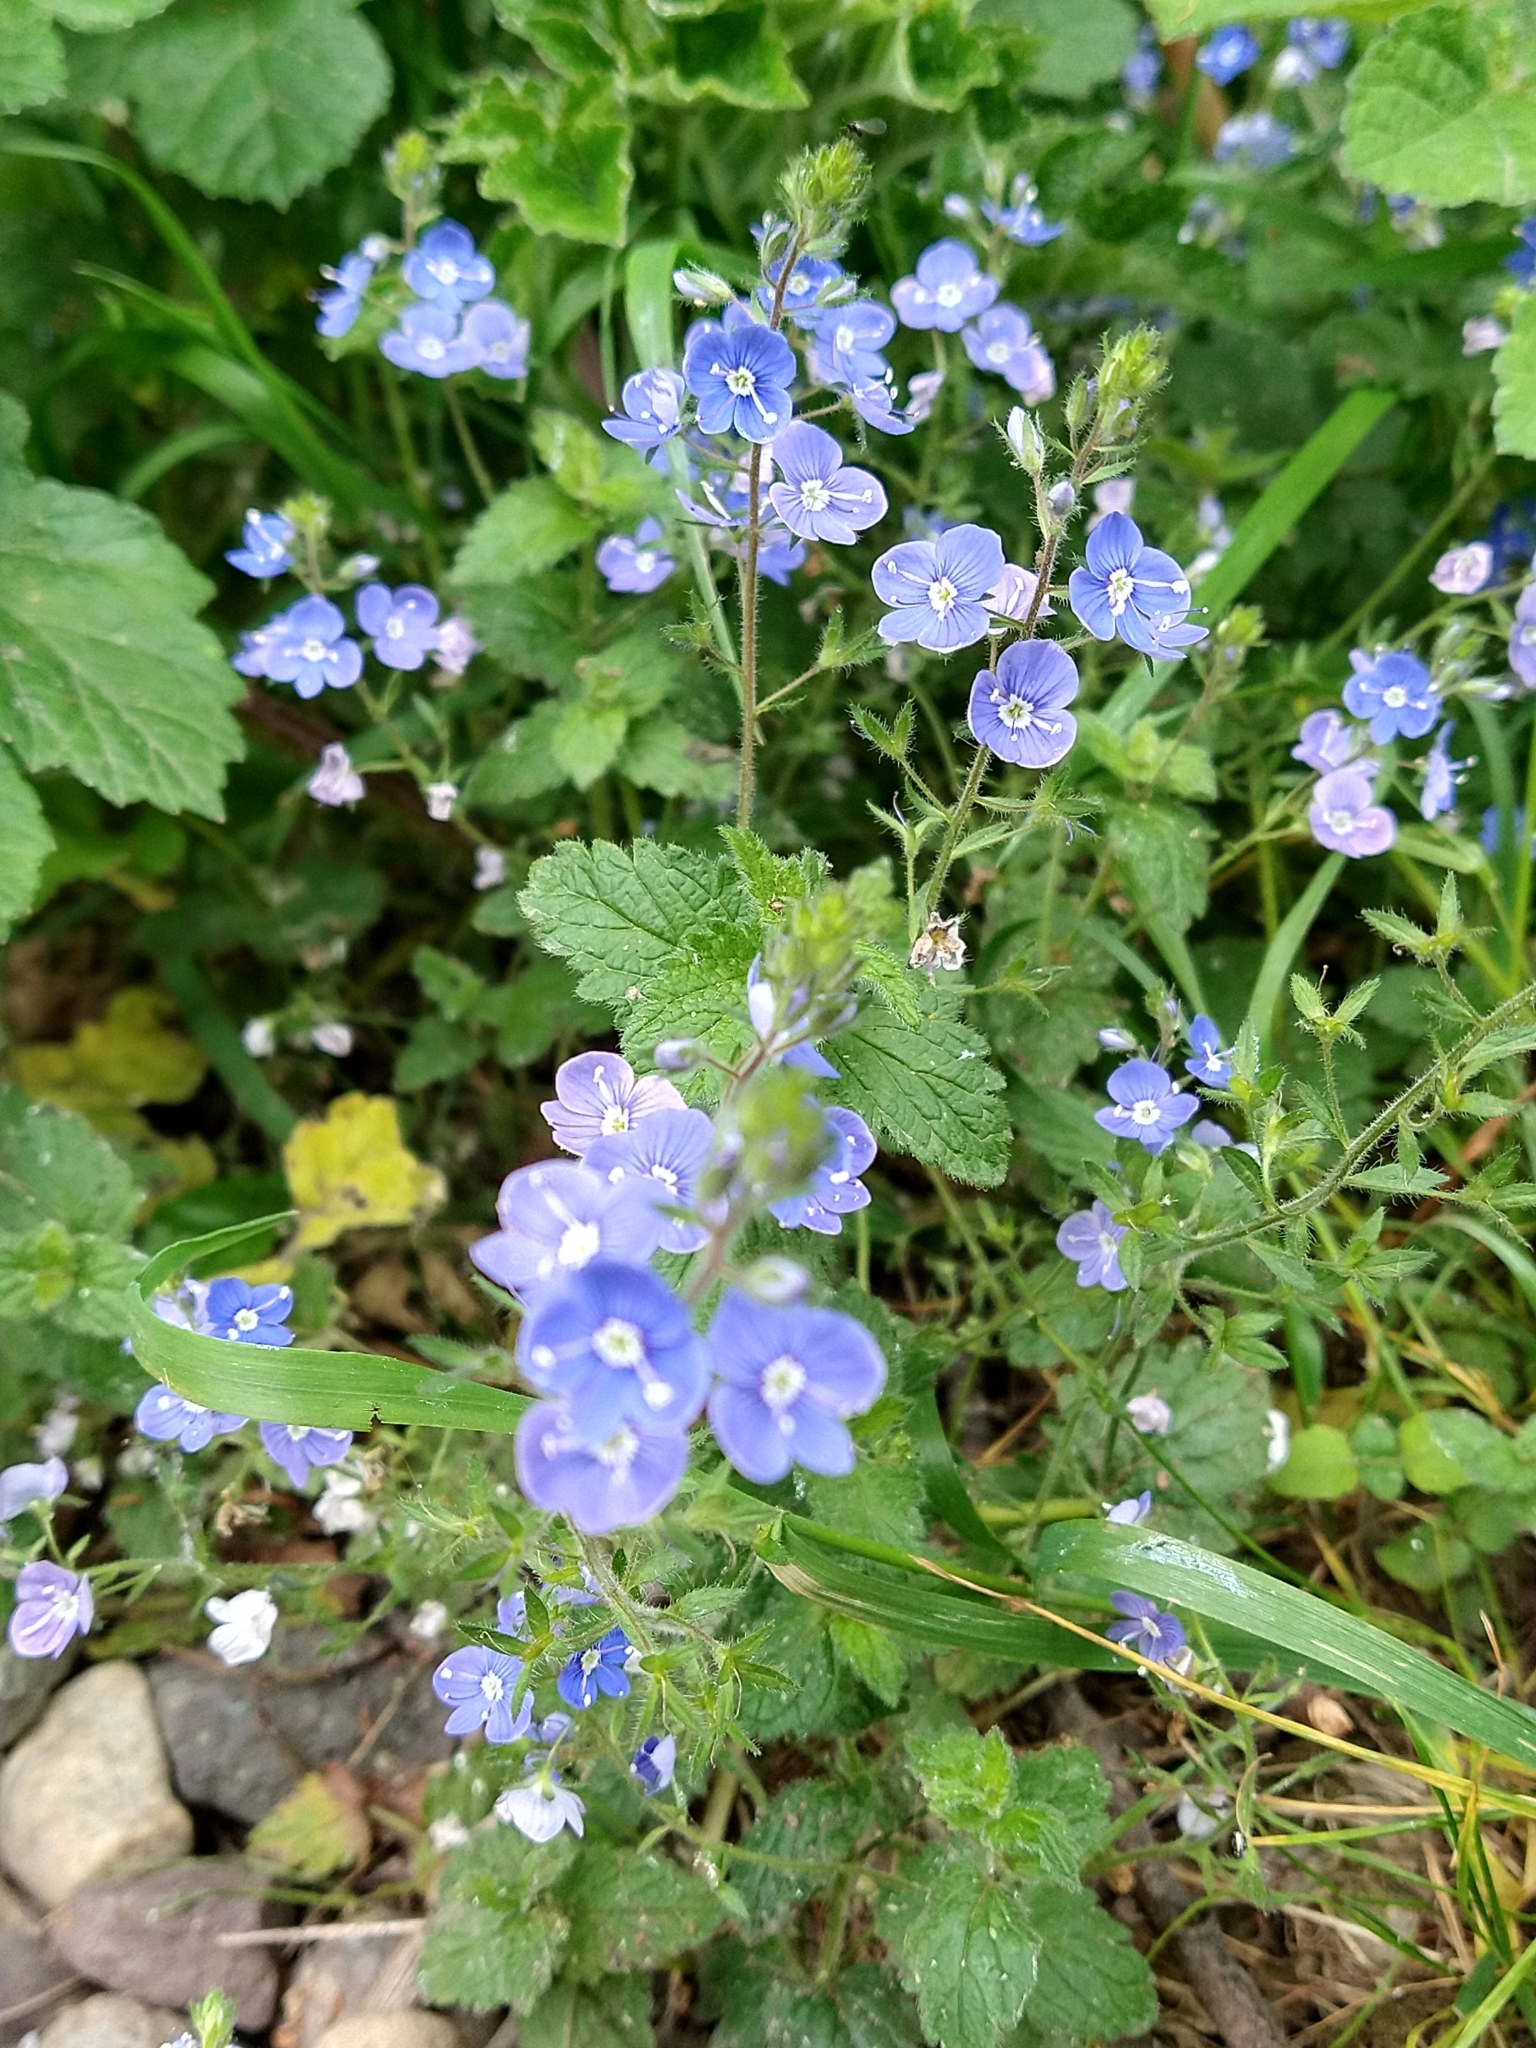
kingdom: Plantae
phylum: Tracheophyta
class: Magnoliopsida
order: Lamiales
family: Plantaginaceae
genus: Veronica
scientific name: Veronica chamaedrys
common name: Germander speedwell
